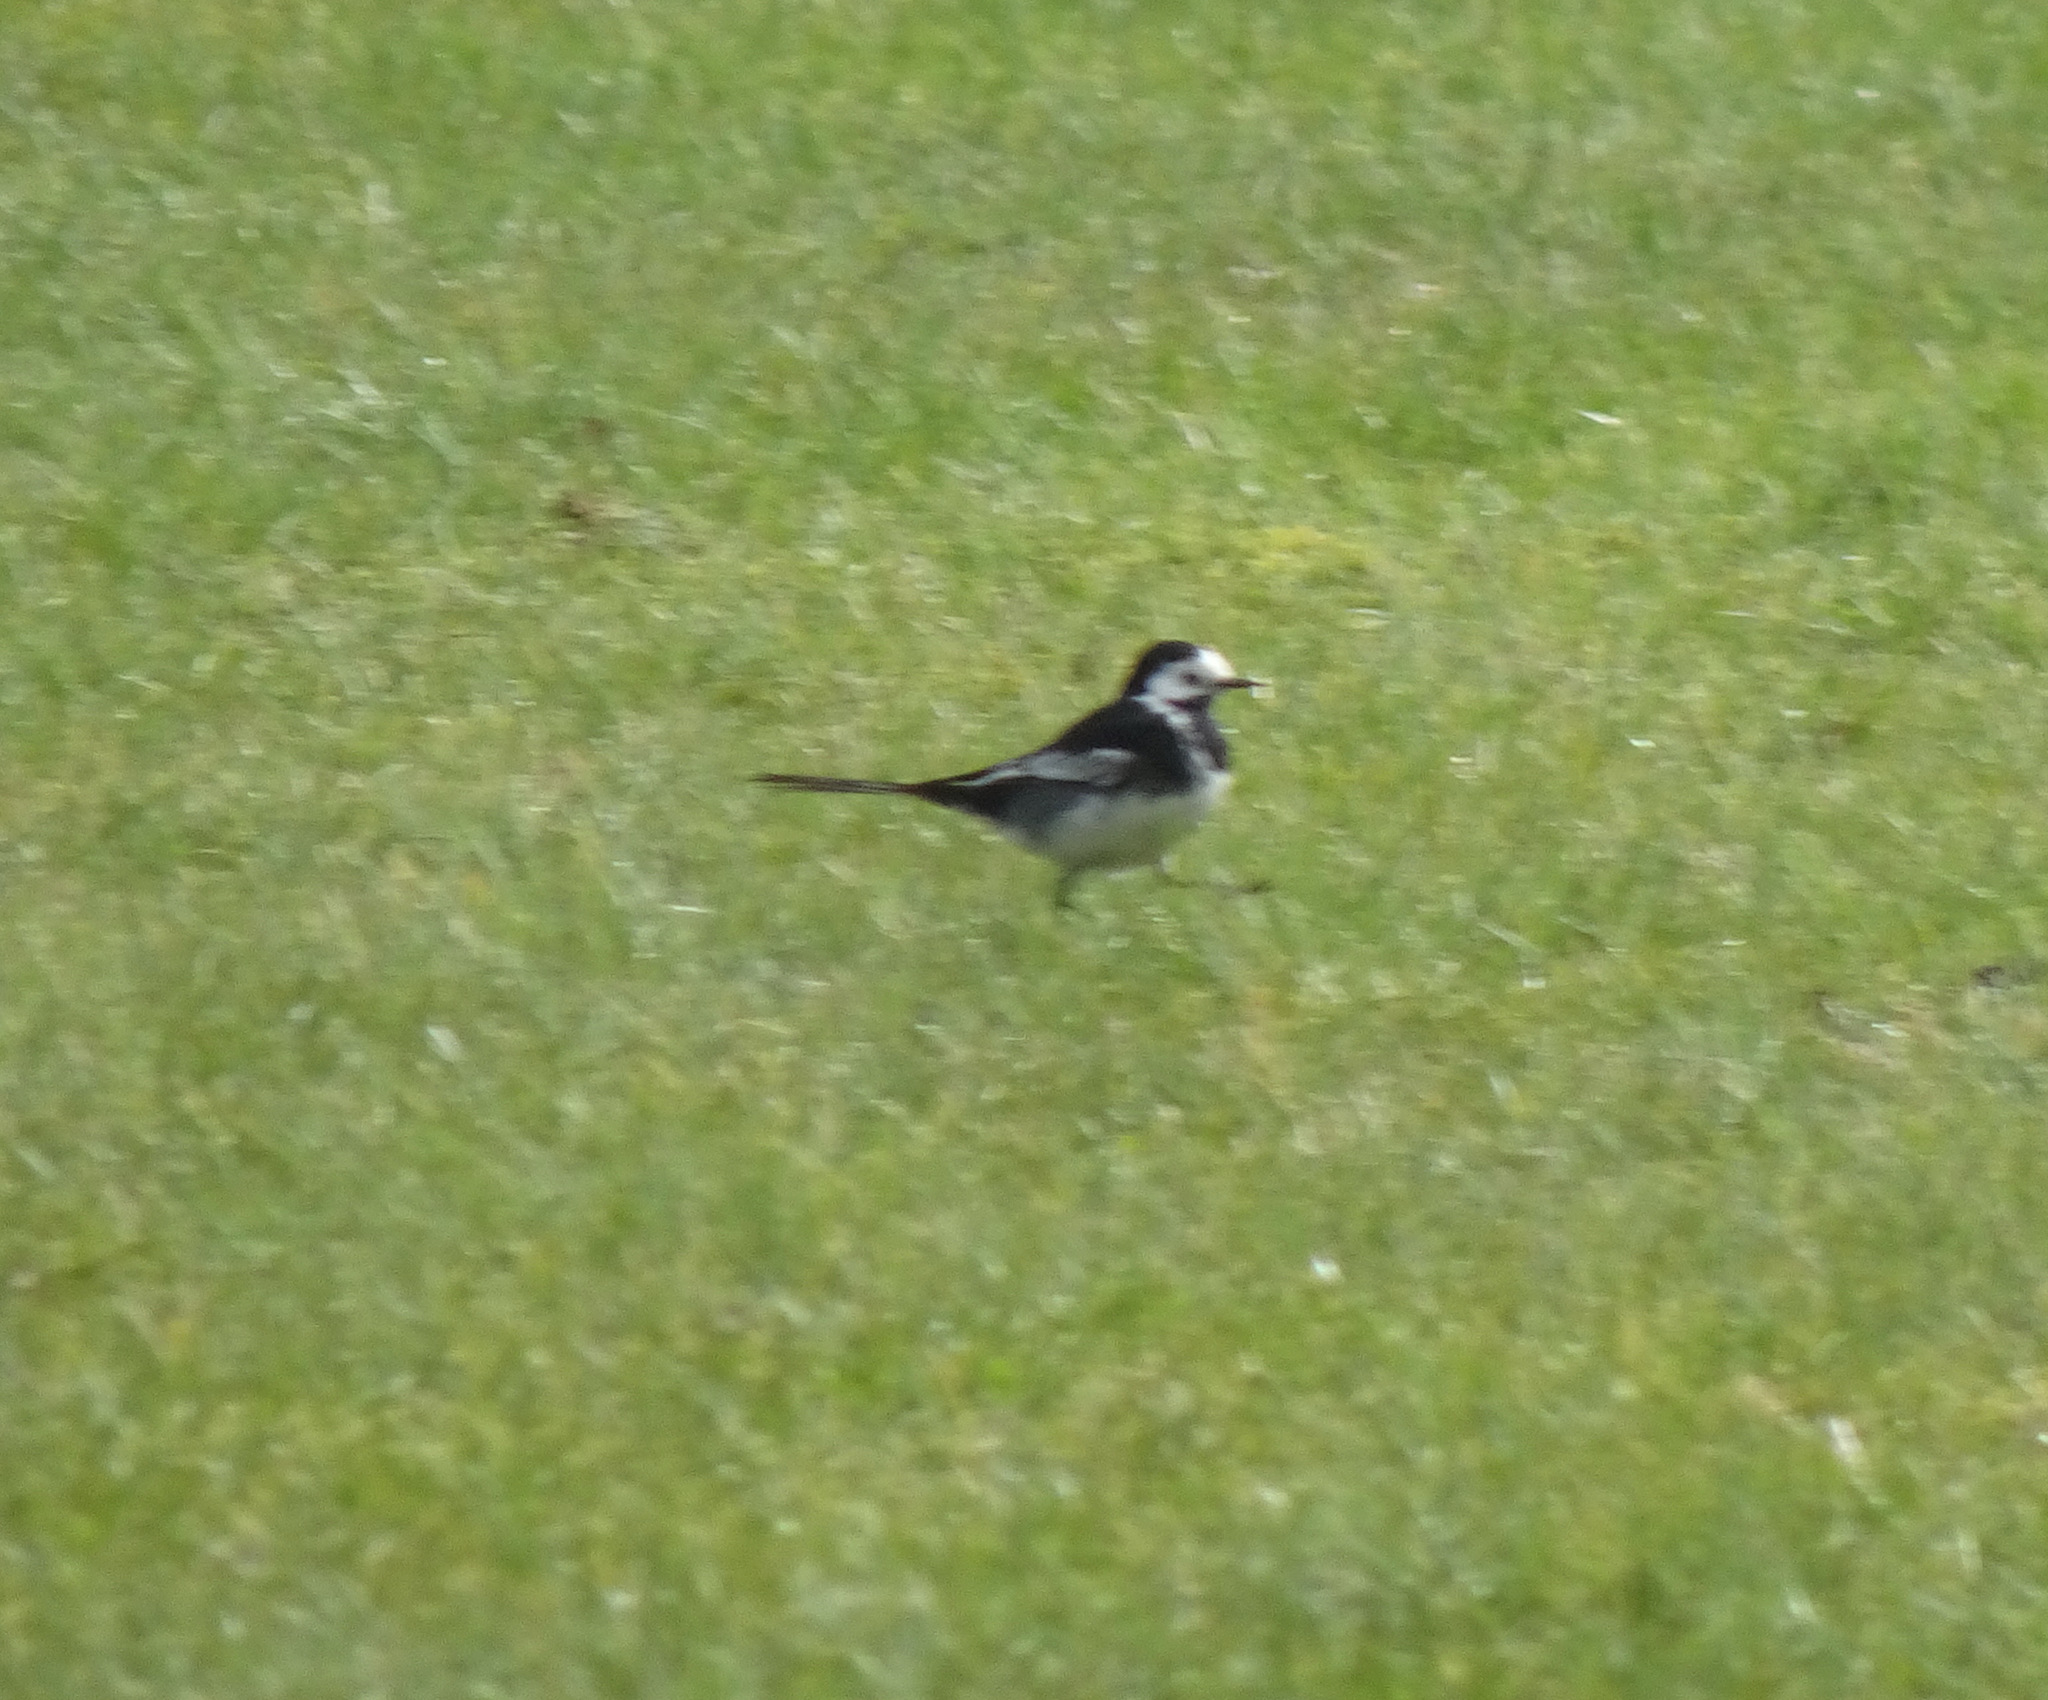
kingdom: Animalia
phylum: Chordata
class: Aves
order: Passeriformes
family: Motacillidae
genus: Motacilla
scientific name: Motacilla alba
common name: White wagtail
